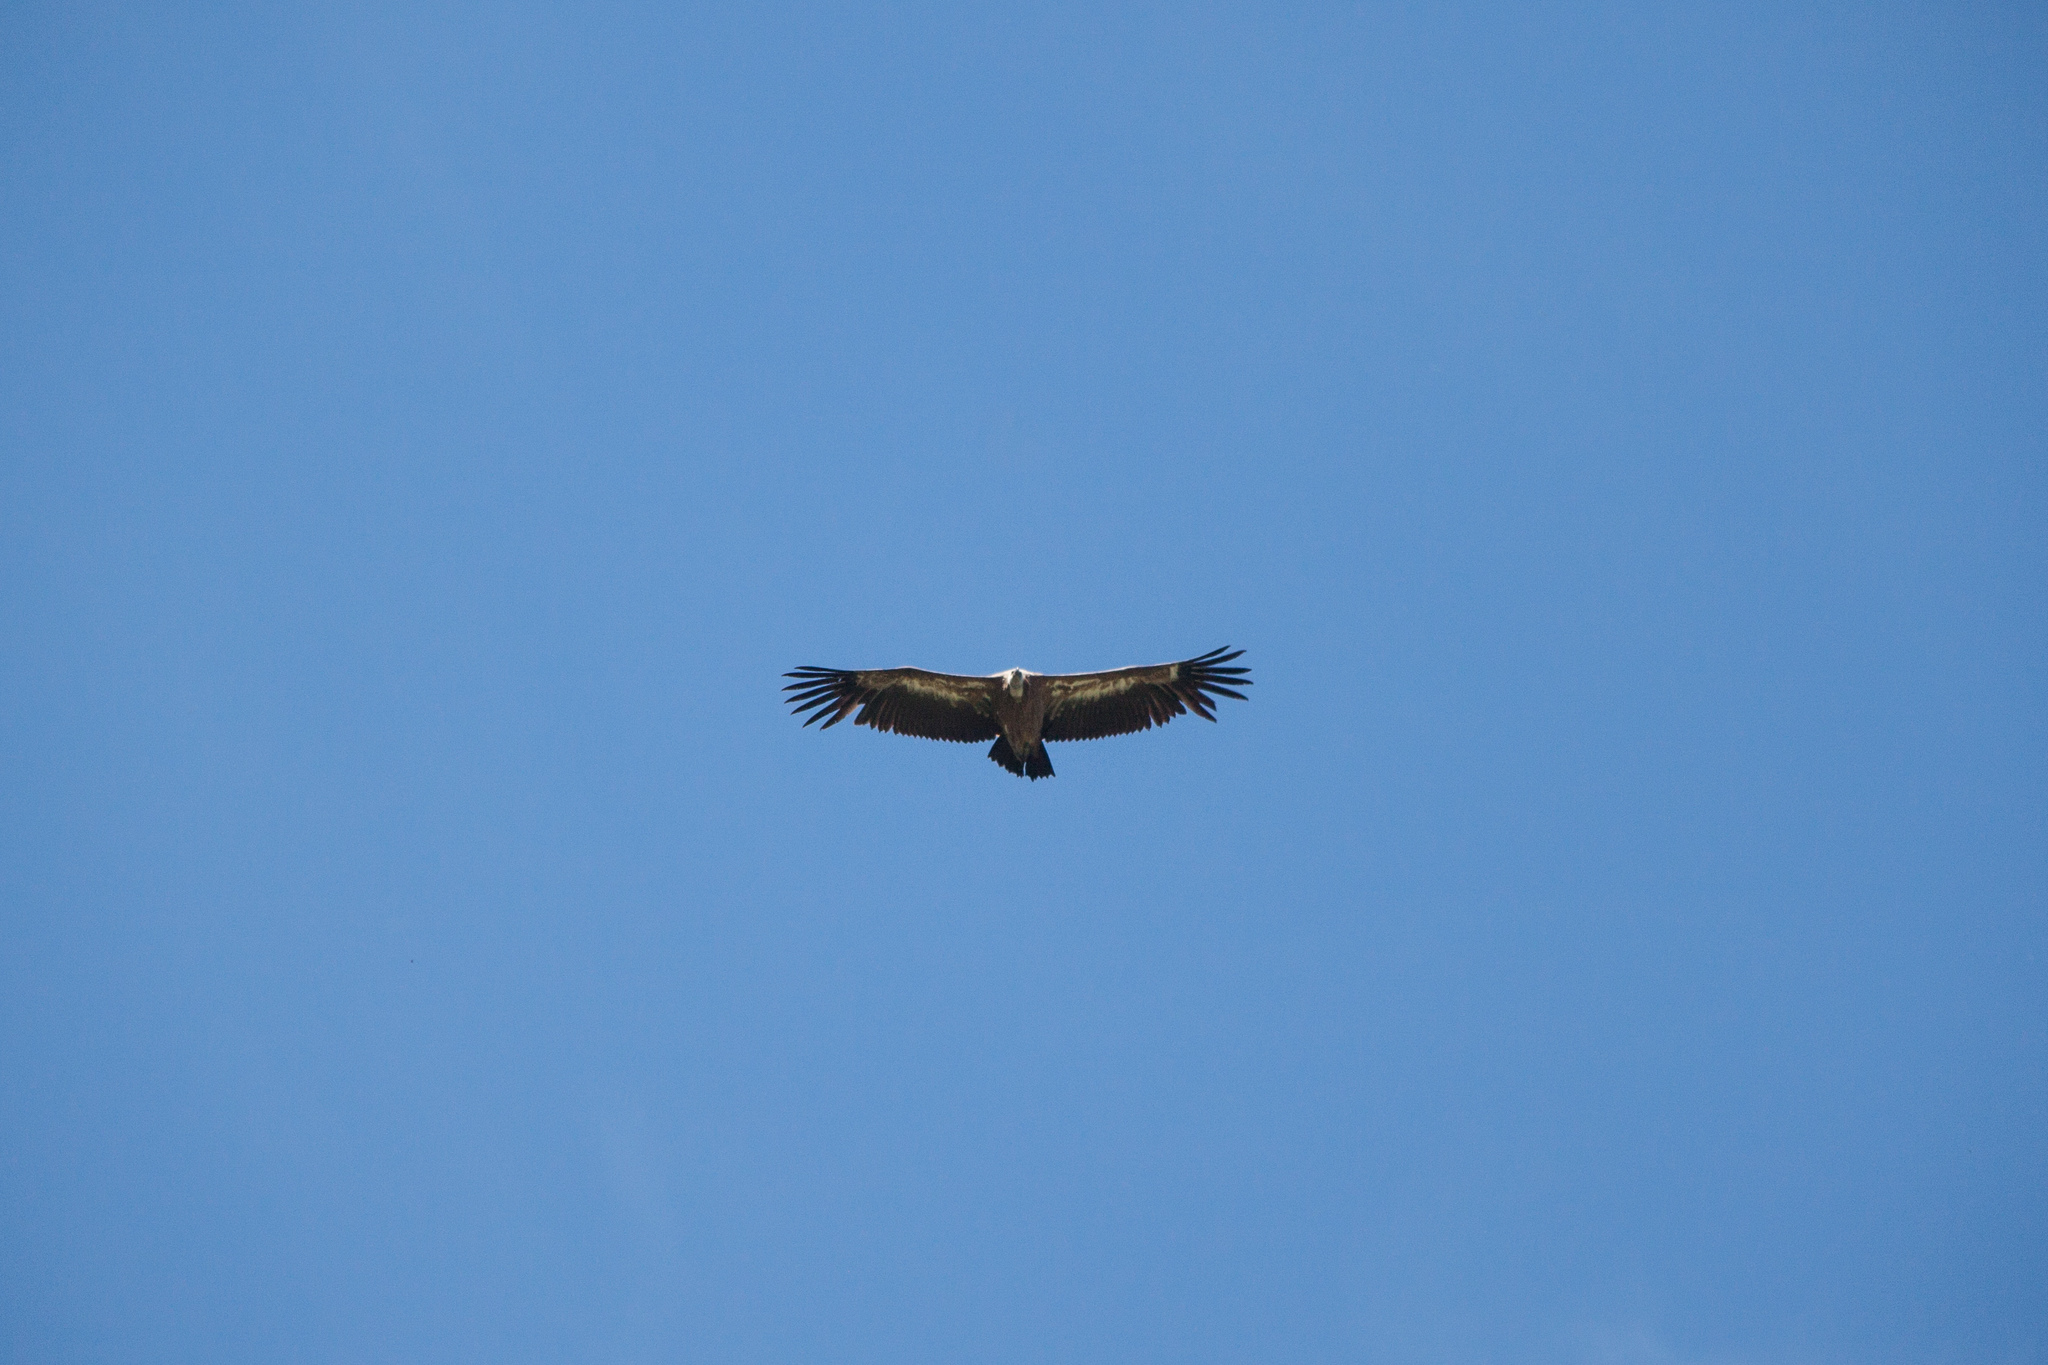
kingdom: Animalia
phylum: Chordata
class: Aves
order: Accipitriformes
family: Accipitridae
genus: Gyps
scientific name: Gyps fulvus
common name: Griffon vulture
